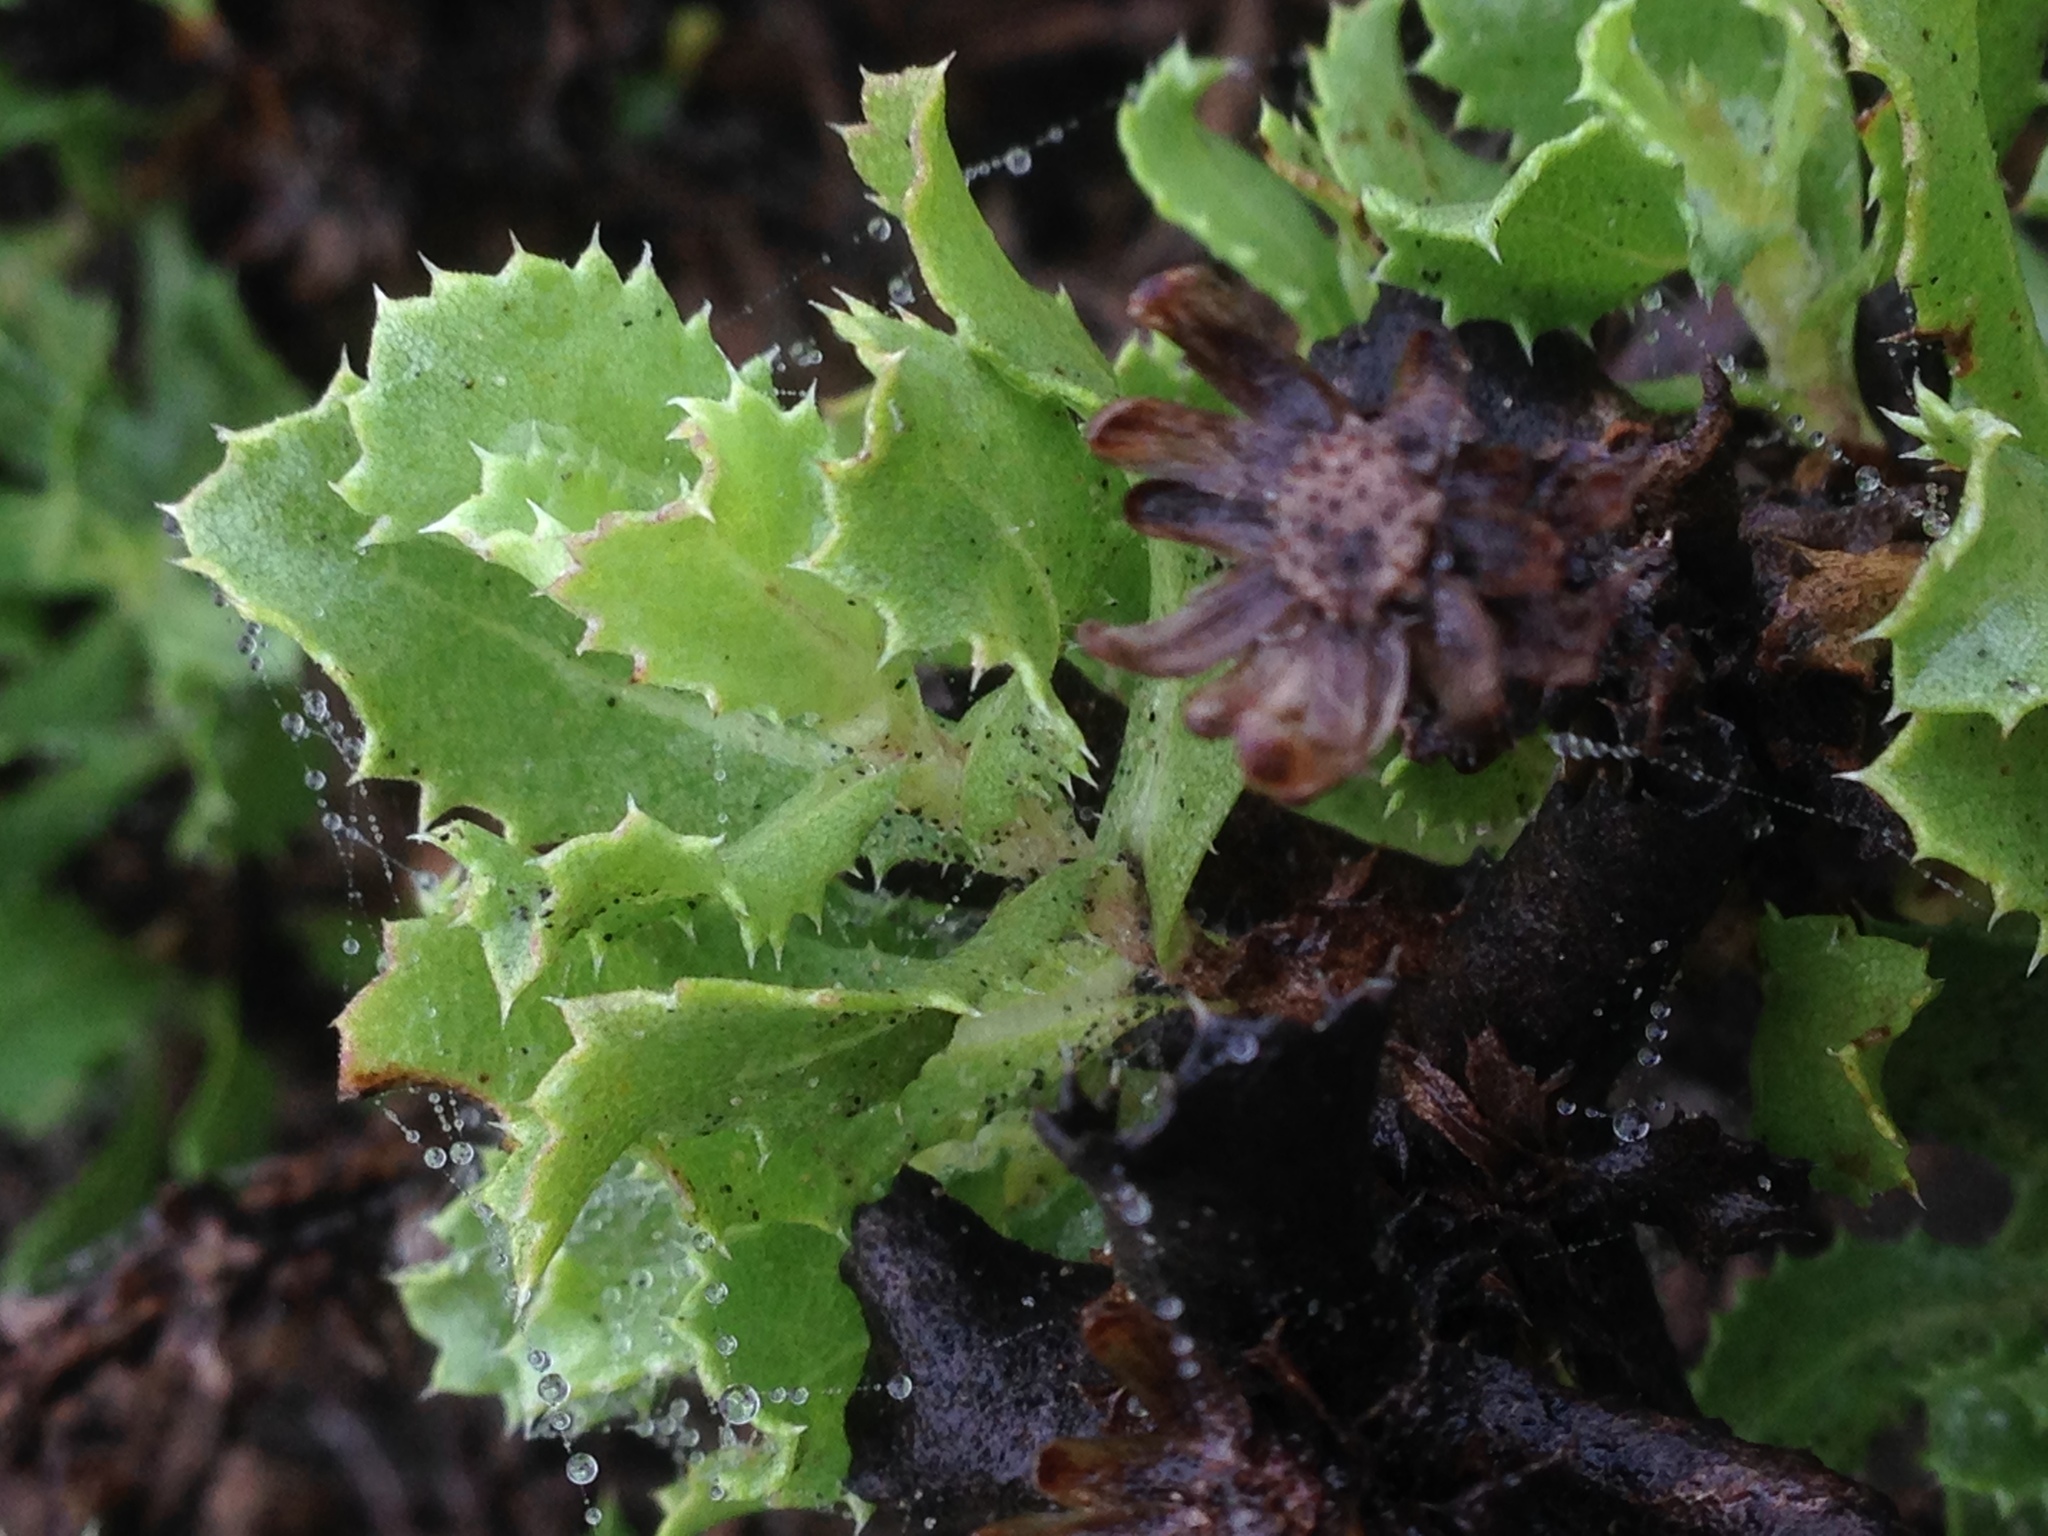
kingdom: Plantae
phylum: Tracheophyta
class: Magnoliopsida
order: Asterales
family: Asteraceae
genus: Hazardia
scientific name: Hazardia berberidis
